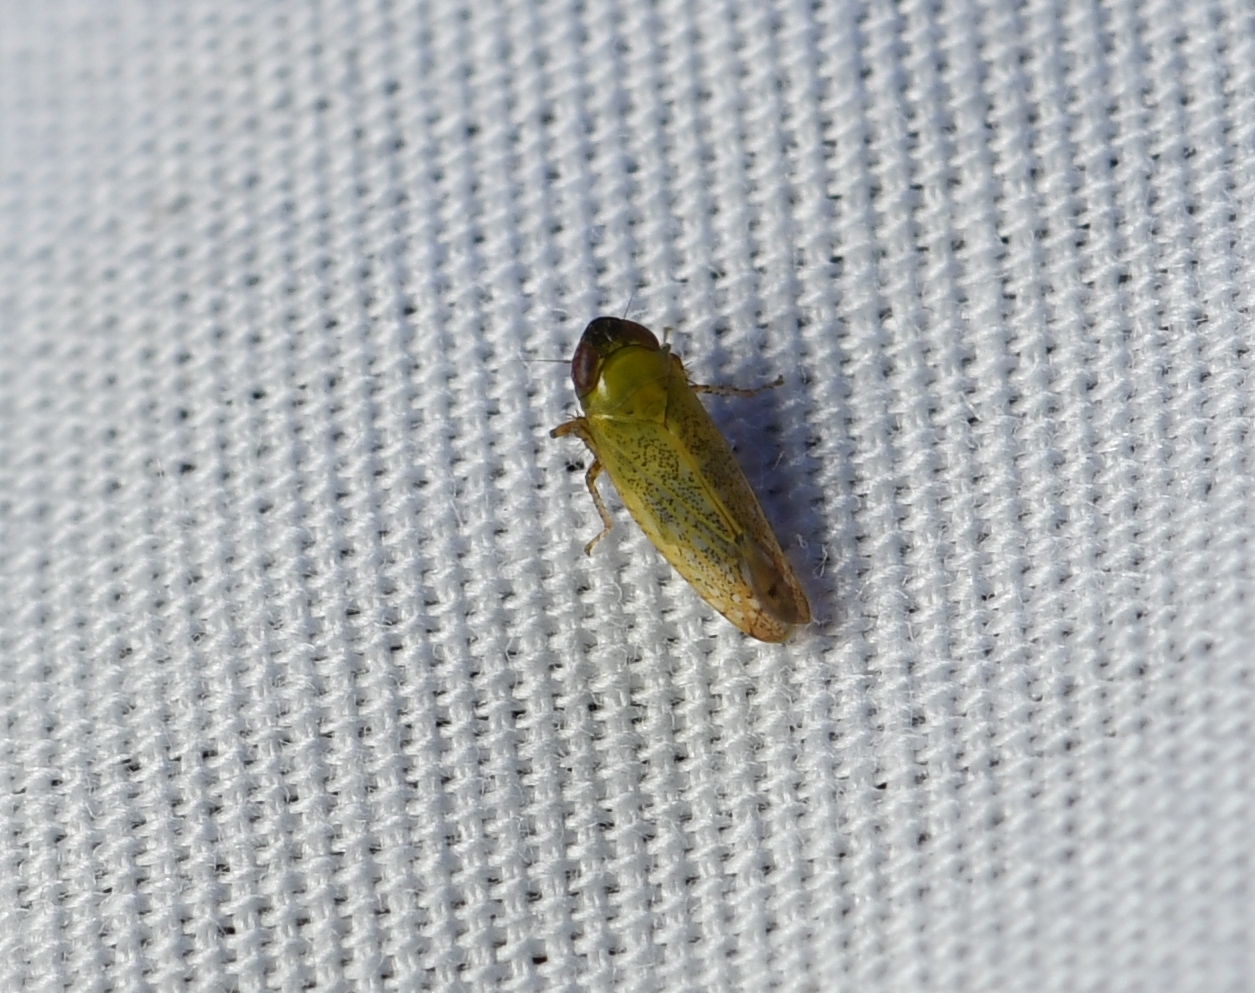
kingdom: Animalia
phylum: Arthropoda
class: Insecta
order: Hemiptera
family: Cicadellidae
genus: Scaphytopius
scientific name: Scaphytopius nigricollis
